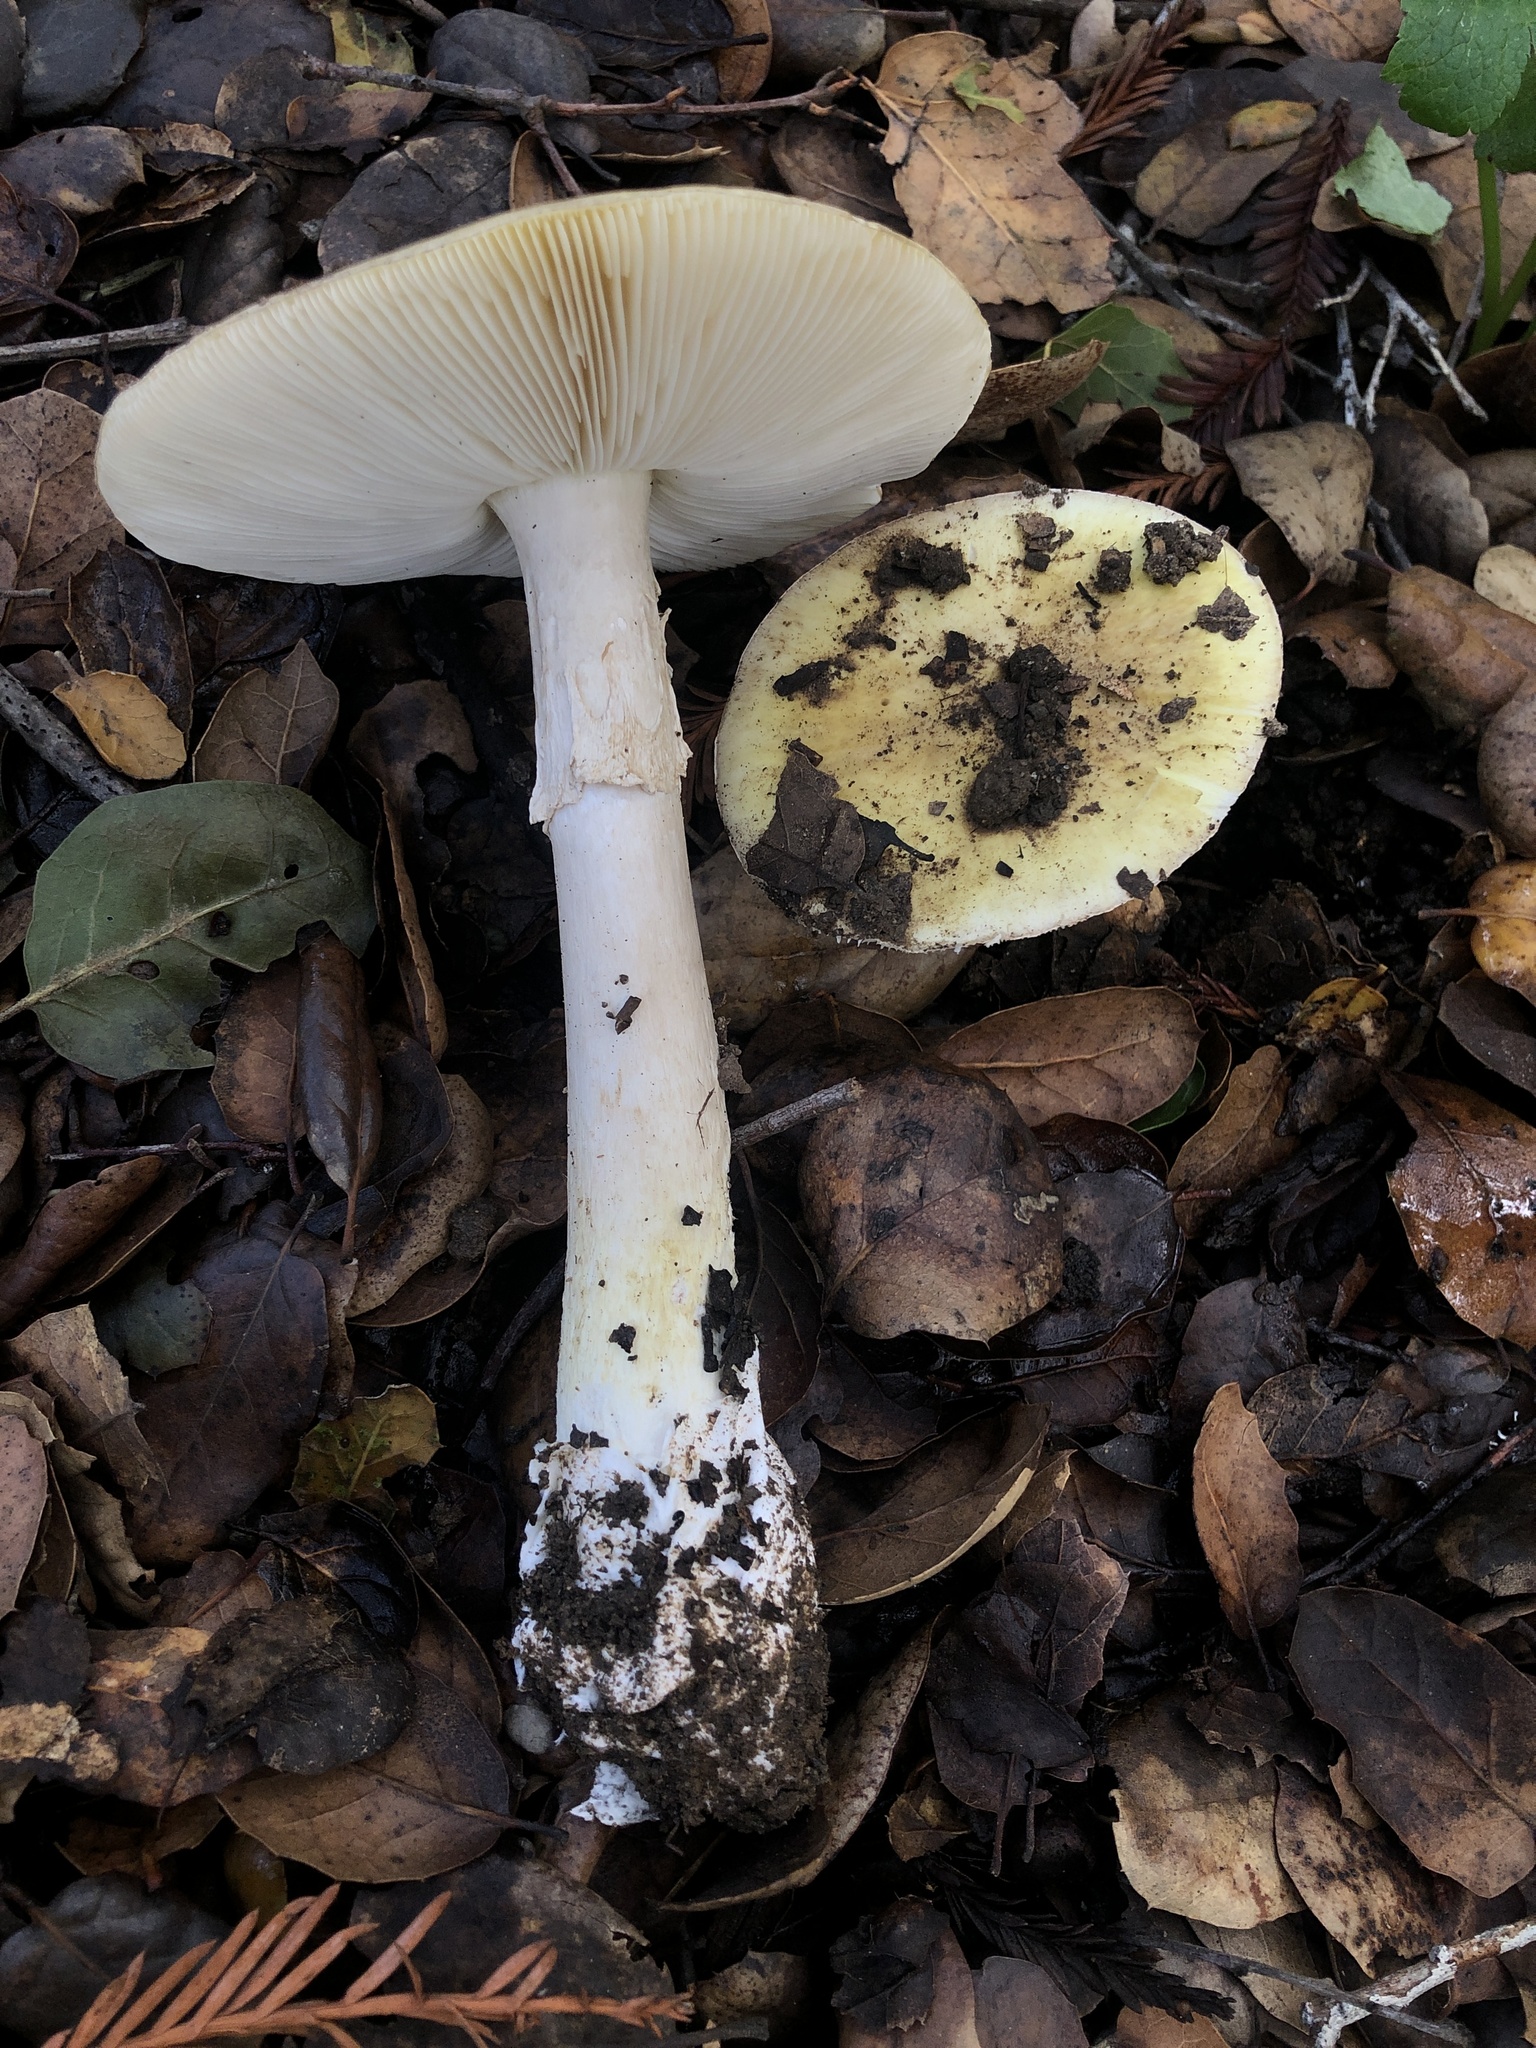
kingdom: Fungi
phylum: Basidiomycota
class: Agaricomycetes
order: Agaricales
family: Amanitaceae
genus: Amanita
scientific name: Amanita phalloides
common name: Death cap
